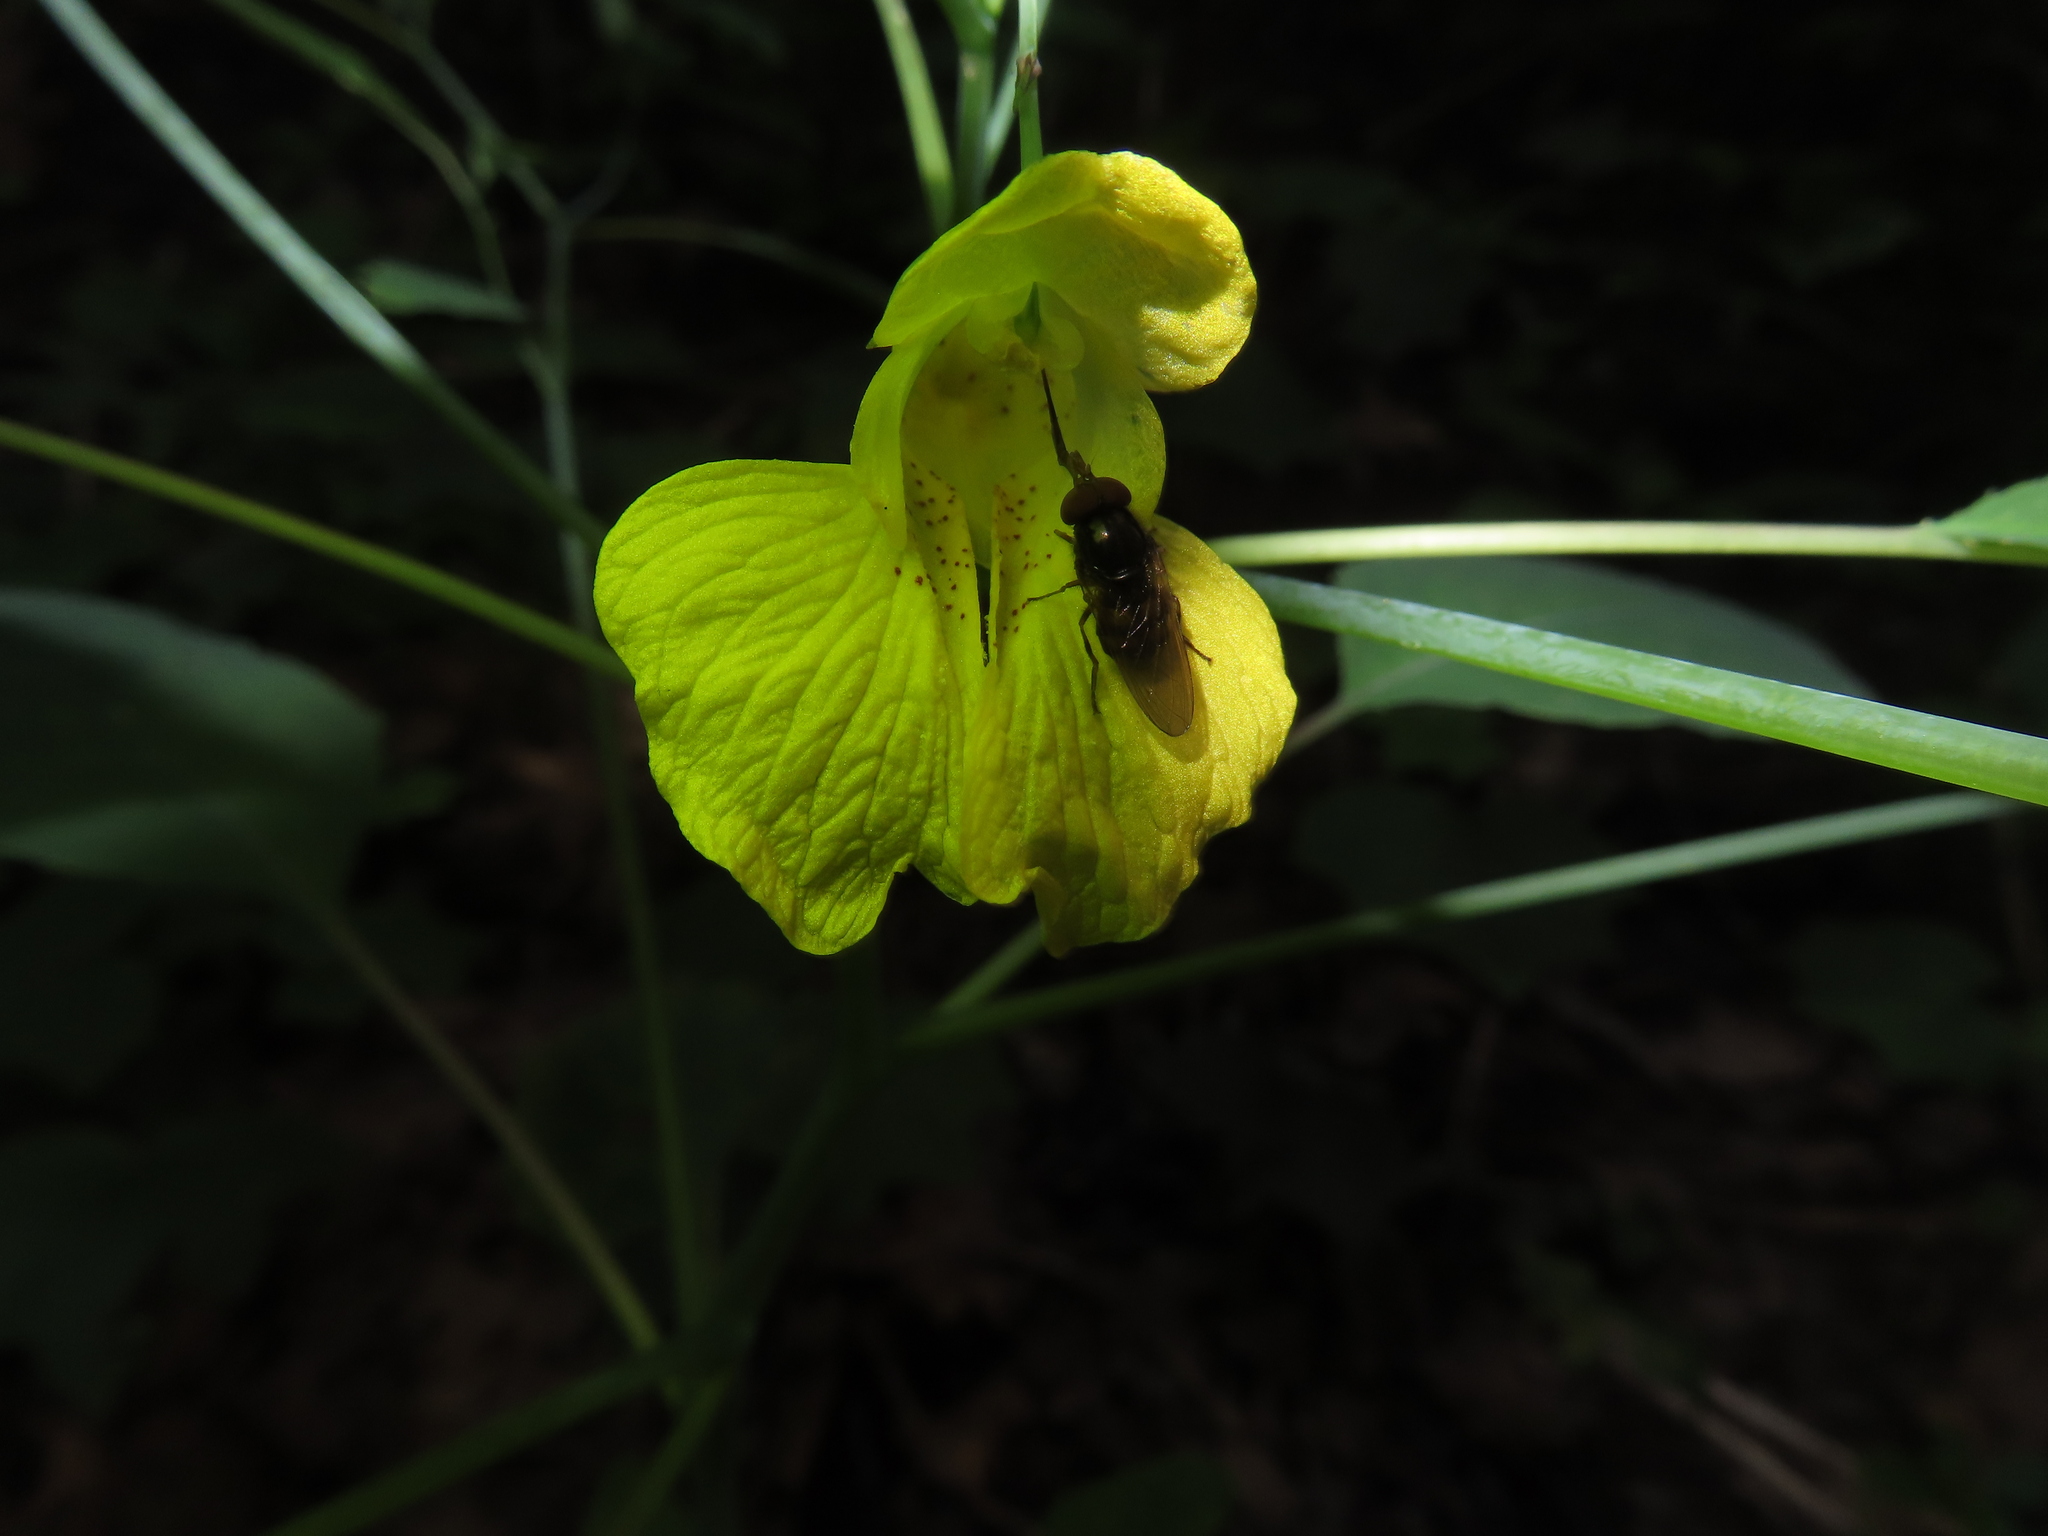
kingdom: Animalia
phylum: Arthropoda
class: Insecta
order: Diptera
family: Syrphidae
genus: Rhingia
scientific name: Rhingia nasica
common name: American snout fly
